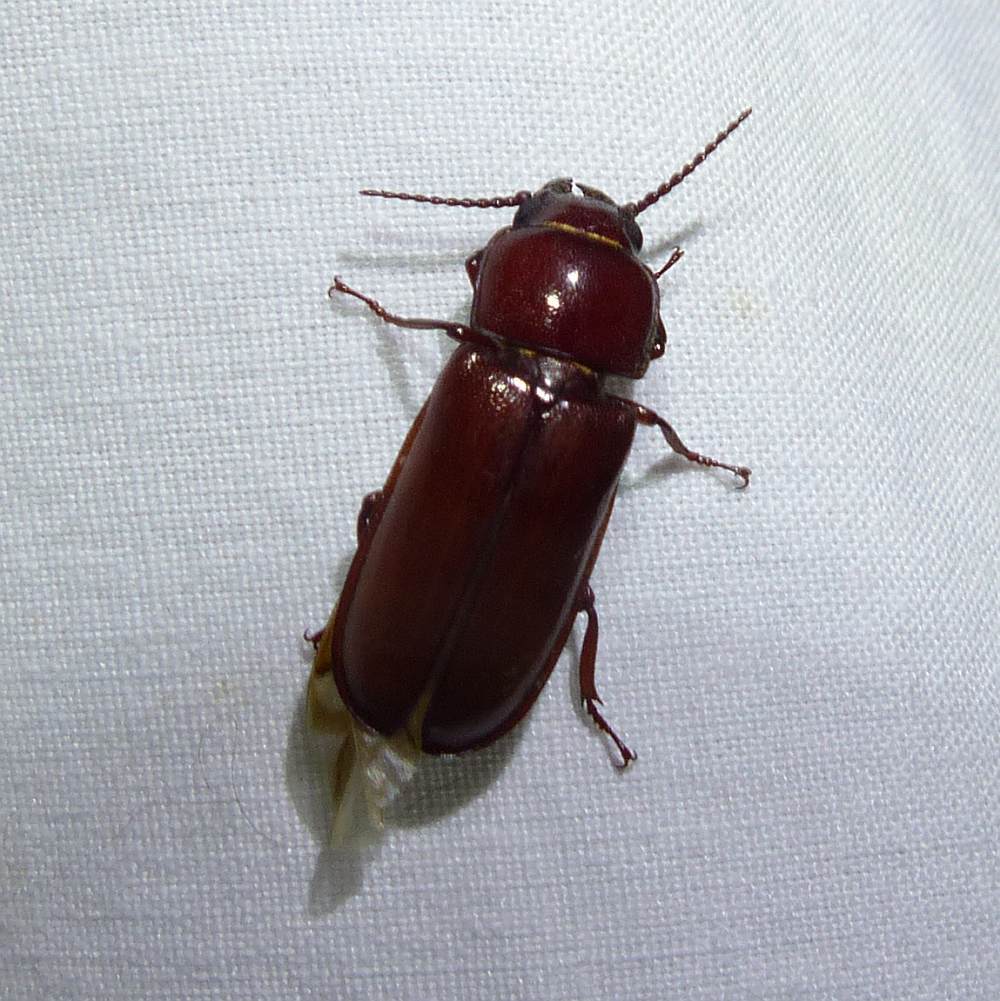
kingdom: Animalia
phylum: Arthropoda
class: Insecta
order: Coleoptera
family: Cerambycidae
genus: Neandra
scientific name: Neandra brunnea
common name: Pole borer
